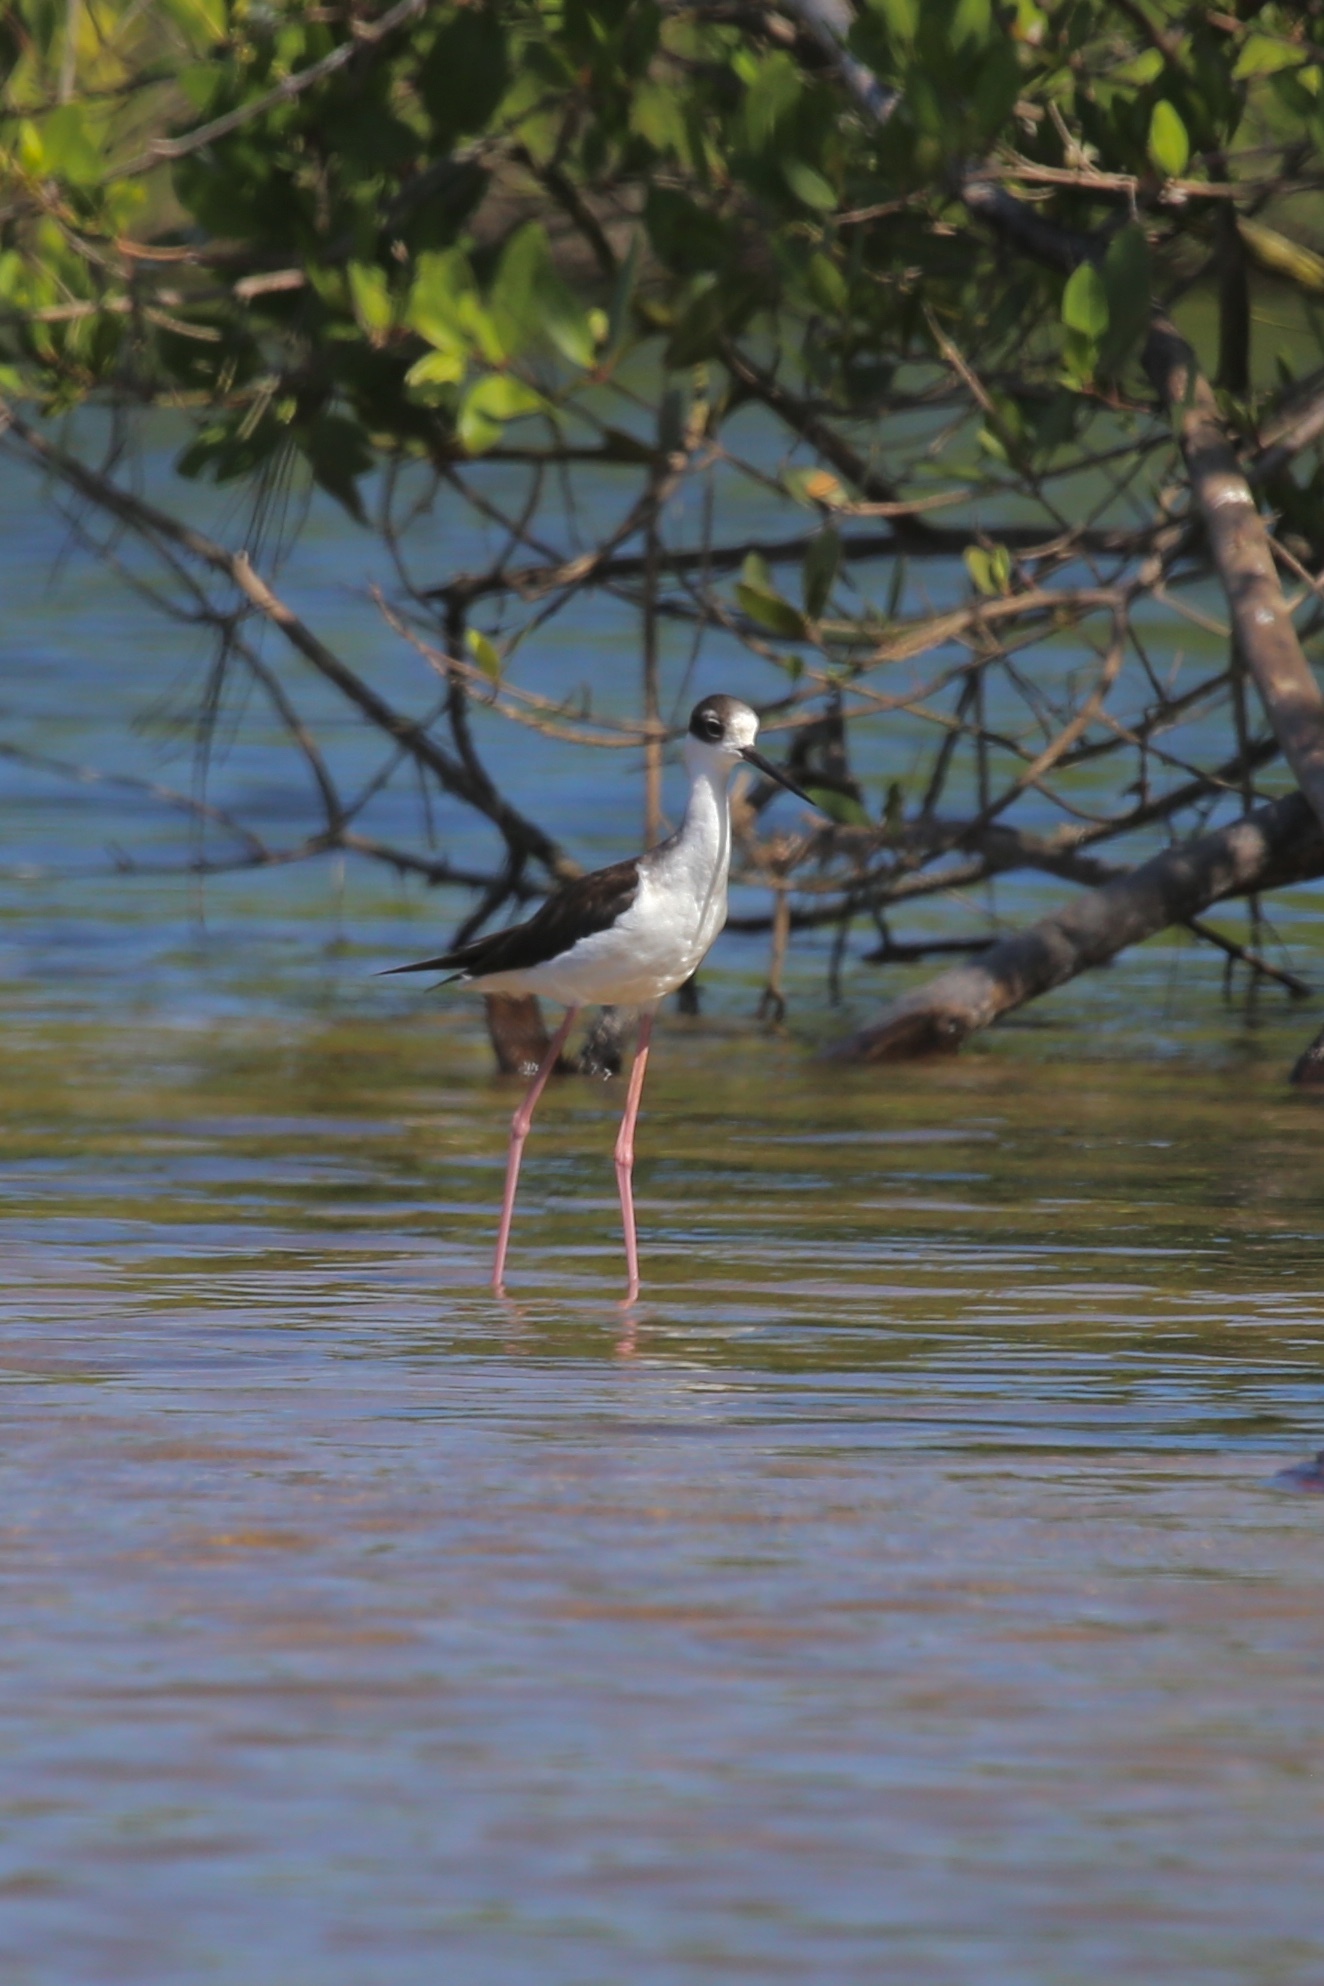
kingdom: Animalia
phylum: Chordata
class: Aves
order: Charadriiformes
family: Recurvirostridae
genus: Himantopus
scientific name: Himantopus mexicanus
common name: Black-necked stilt
